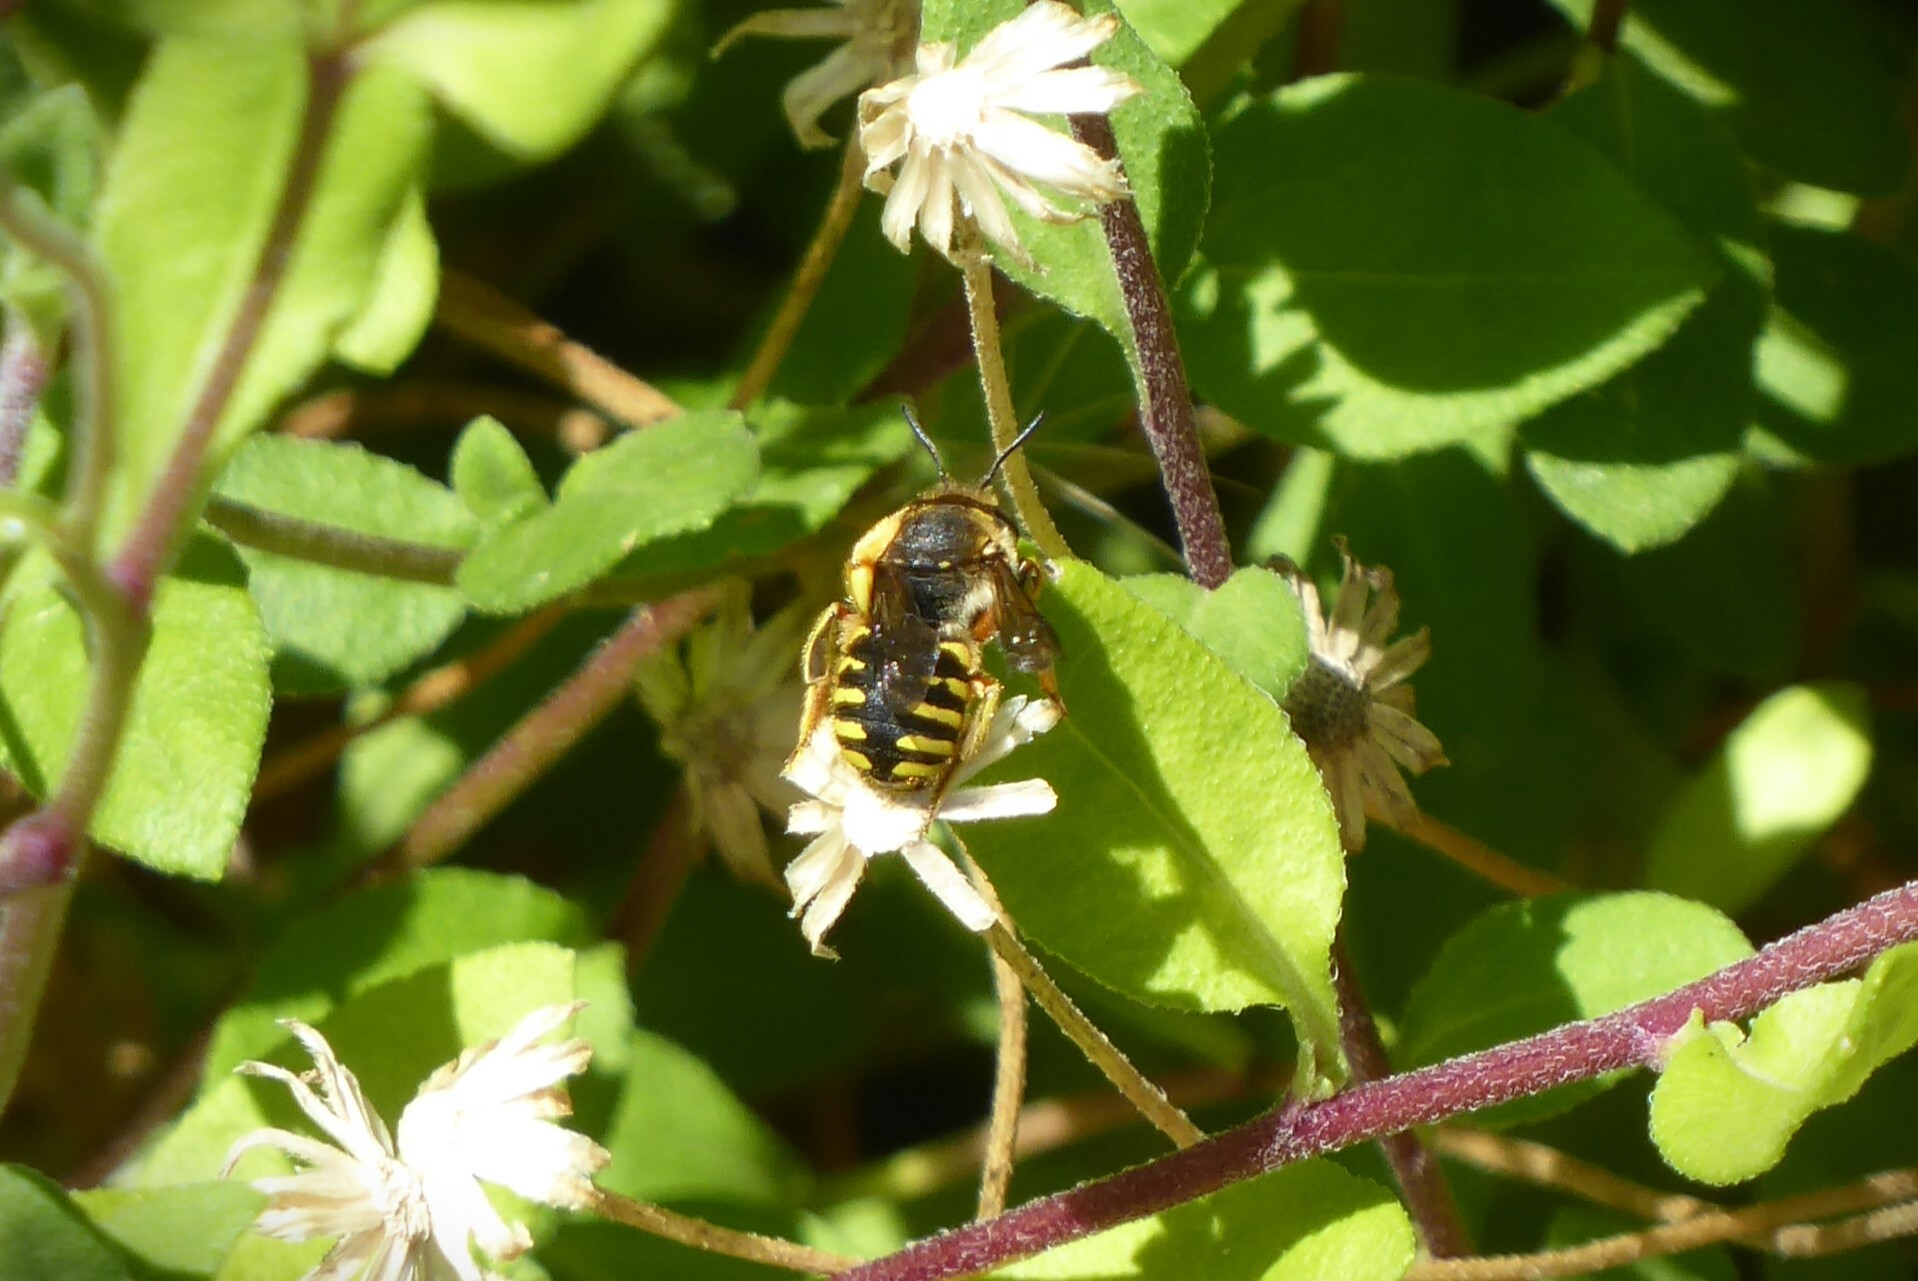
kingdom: Animalia
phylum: Arthropoda
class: Insecta
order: Hymenoptera
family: Megachilidae
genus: Anthidium
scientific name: Anthidium manicatum
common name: Wool carder bee
